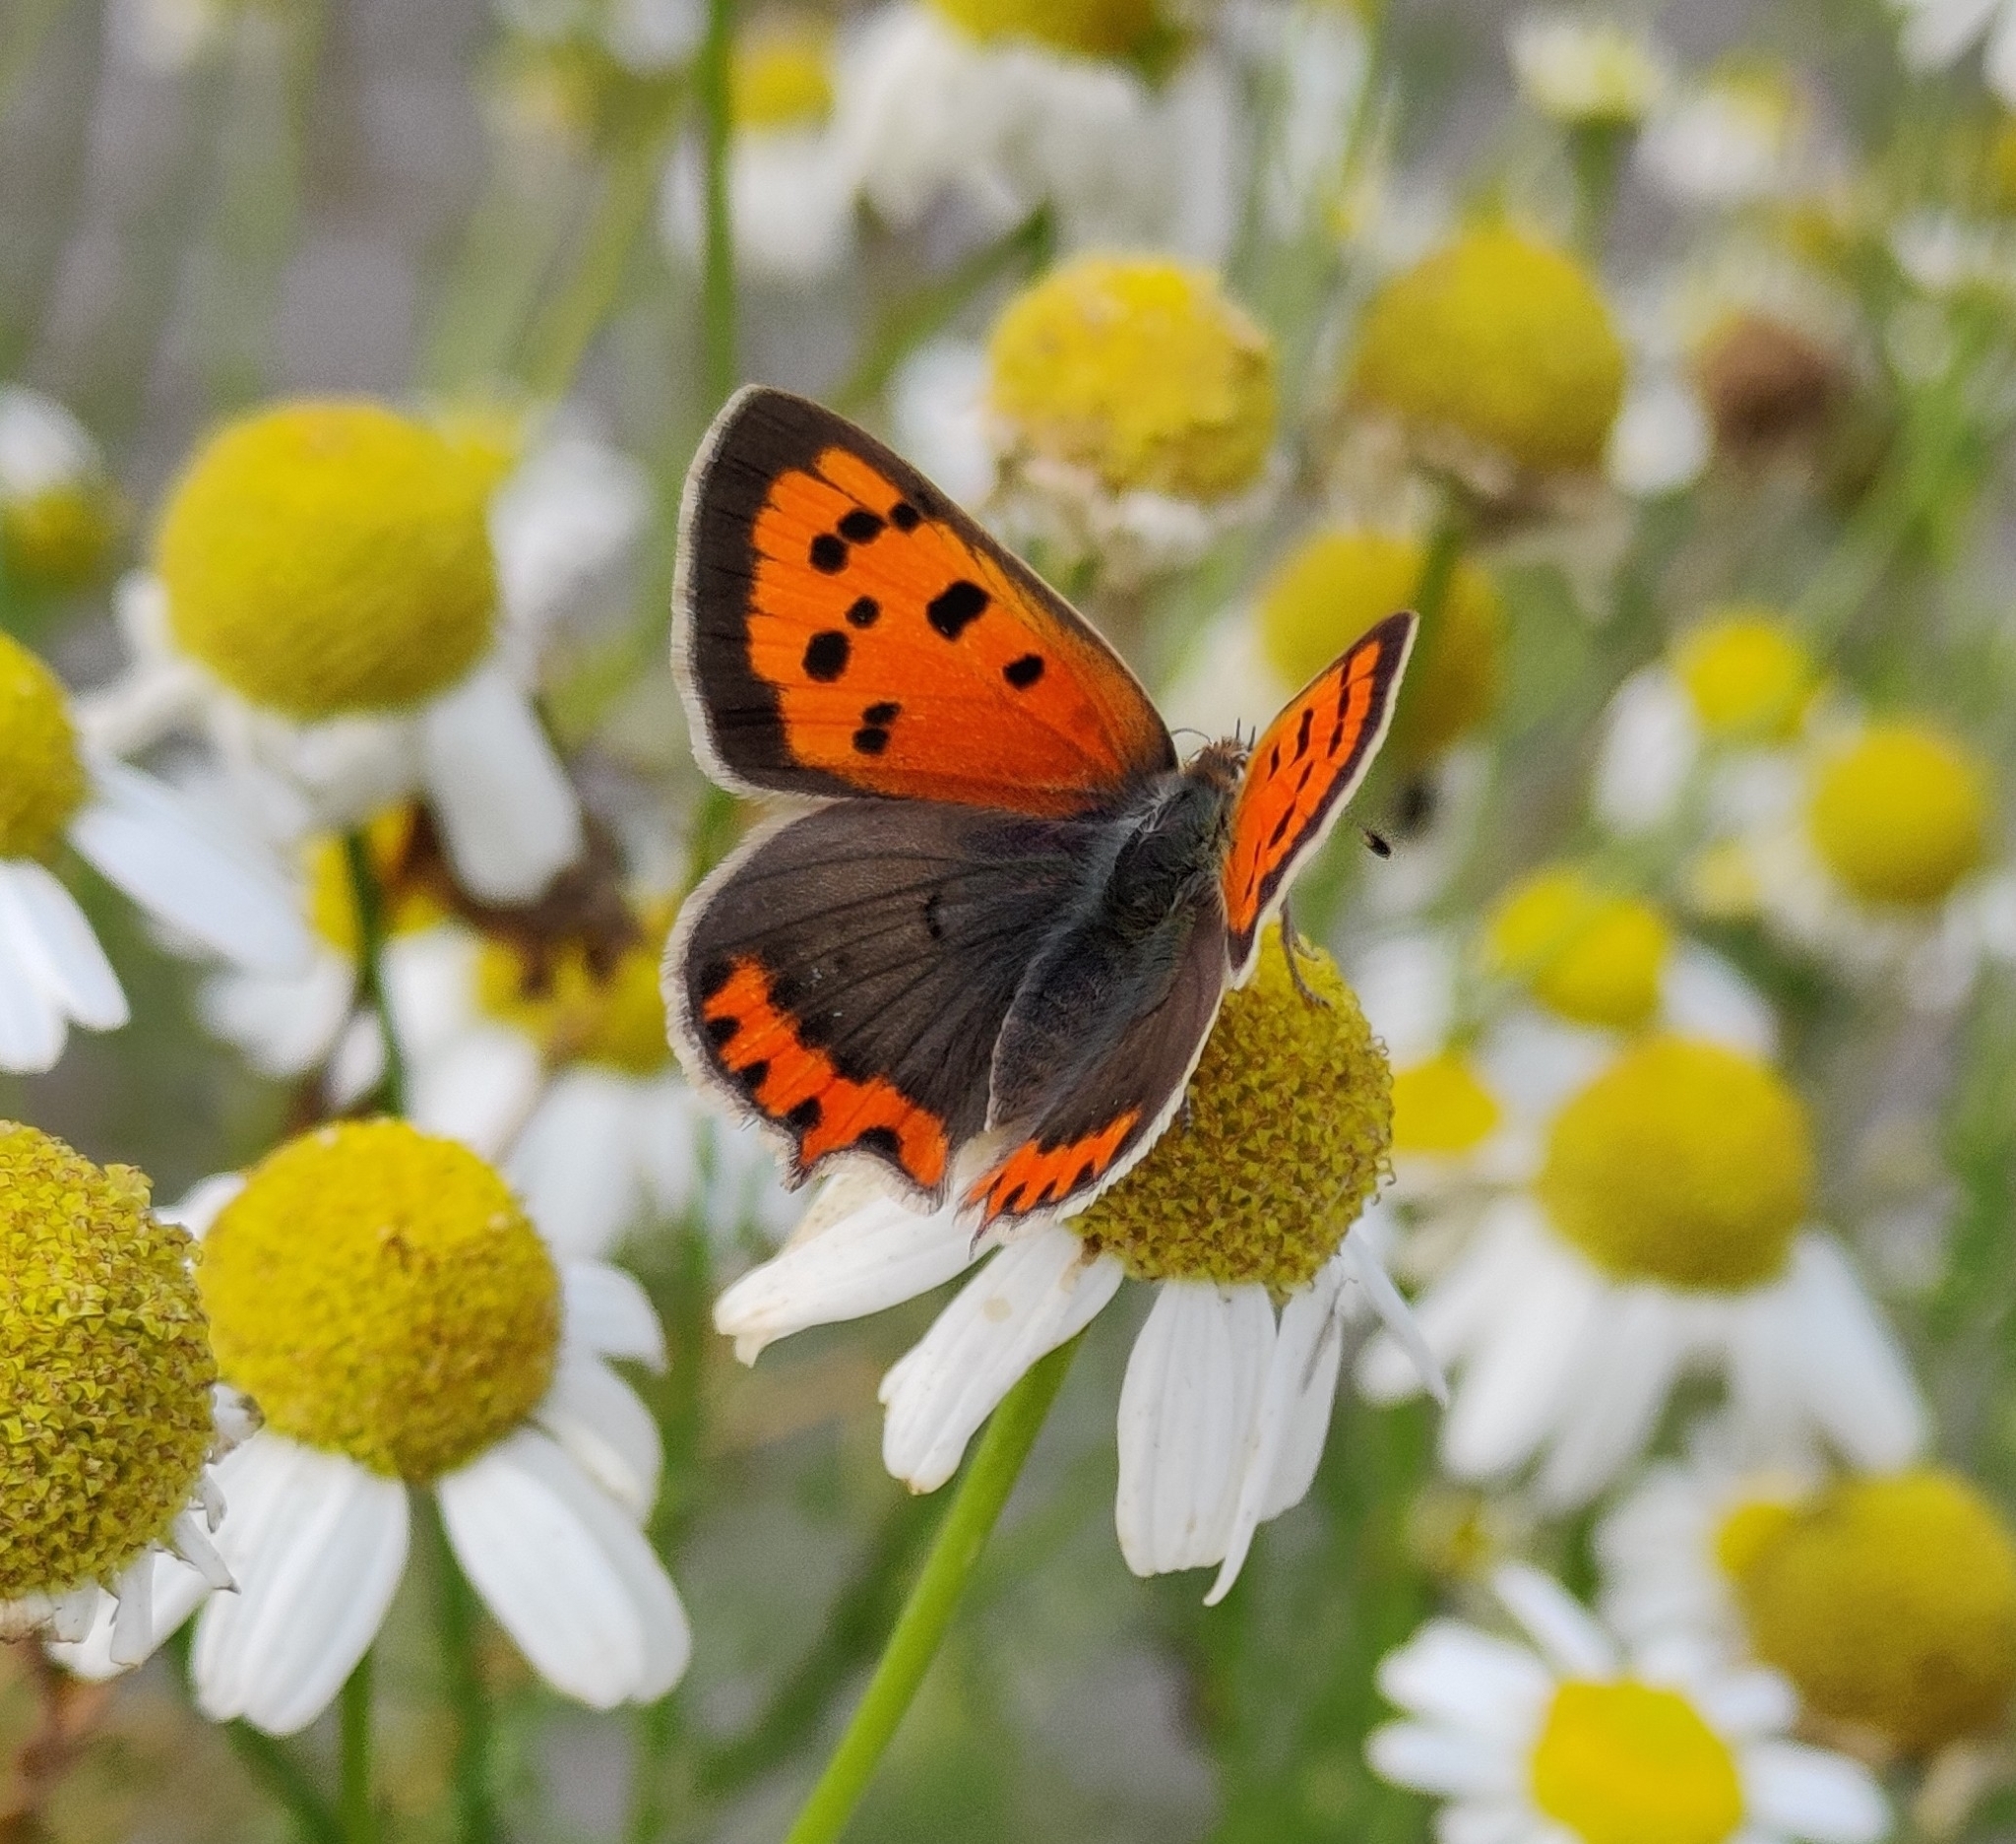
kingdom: Animalia
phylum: Arthropoda
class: Insecta
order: Lepidoptera
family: Lycaenidae
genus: Lycaena
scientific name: Lycaena phlaeas
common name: Small copper
